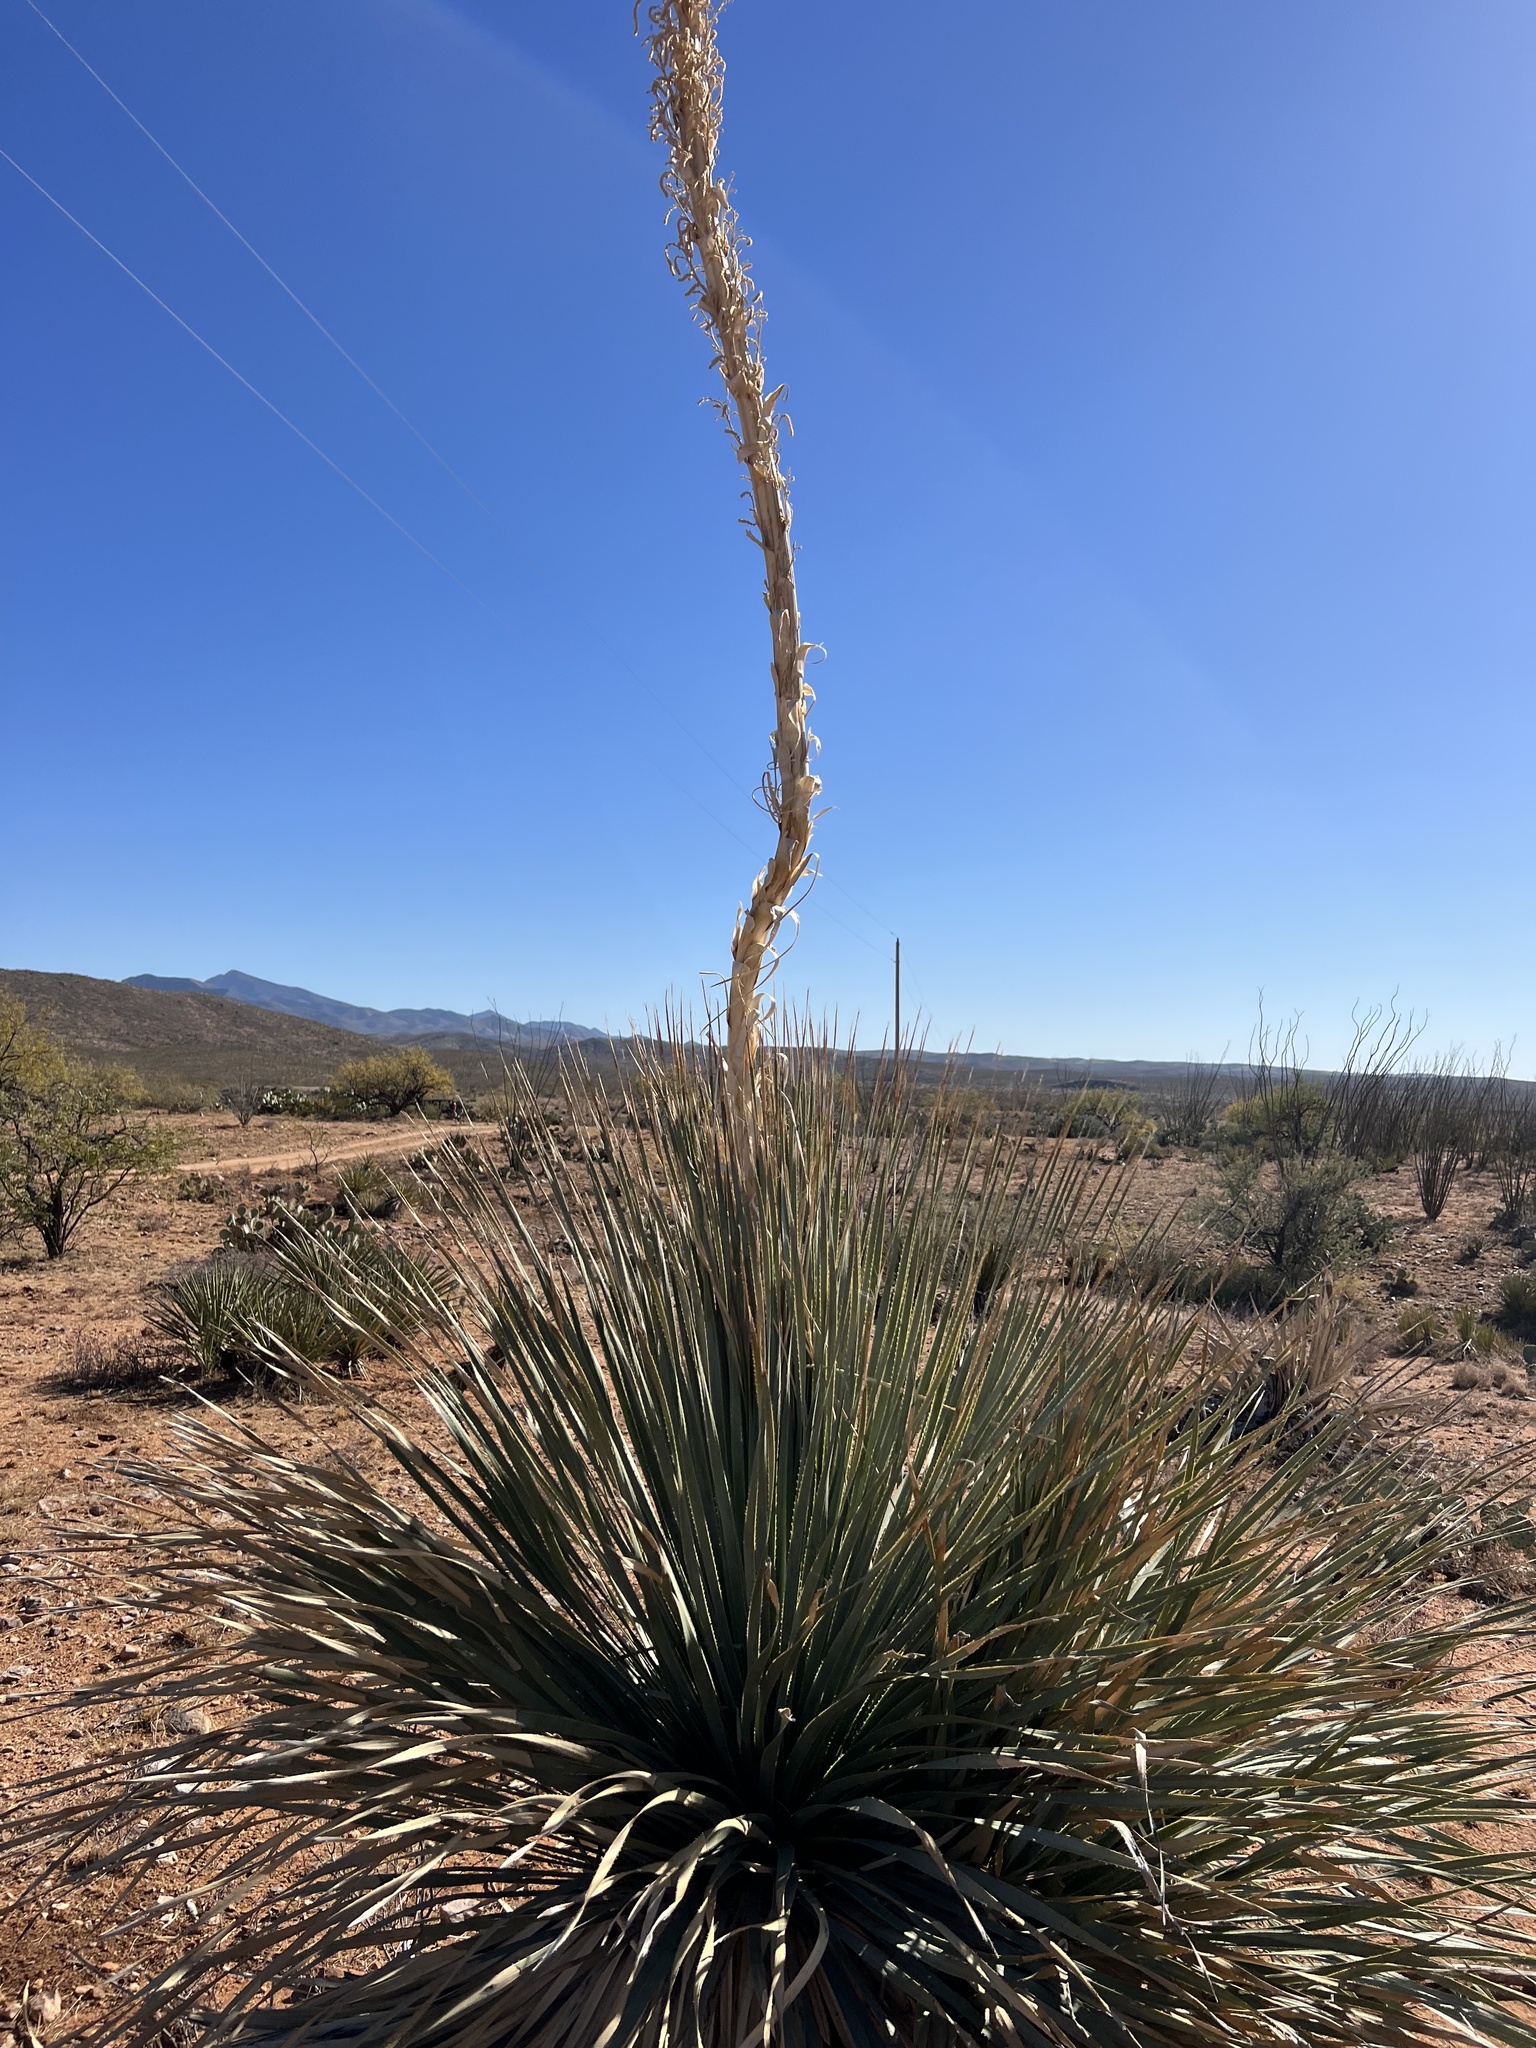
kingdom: Plantae
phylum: Tracheophyta
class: Liliopsida
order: Asparagales
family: Asparagaceae
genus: Dasylirion
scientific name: Dasylirion wheeleri
